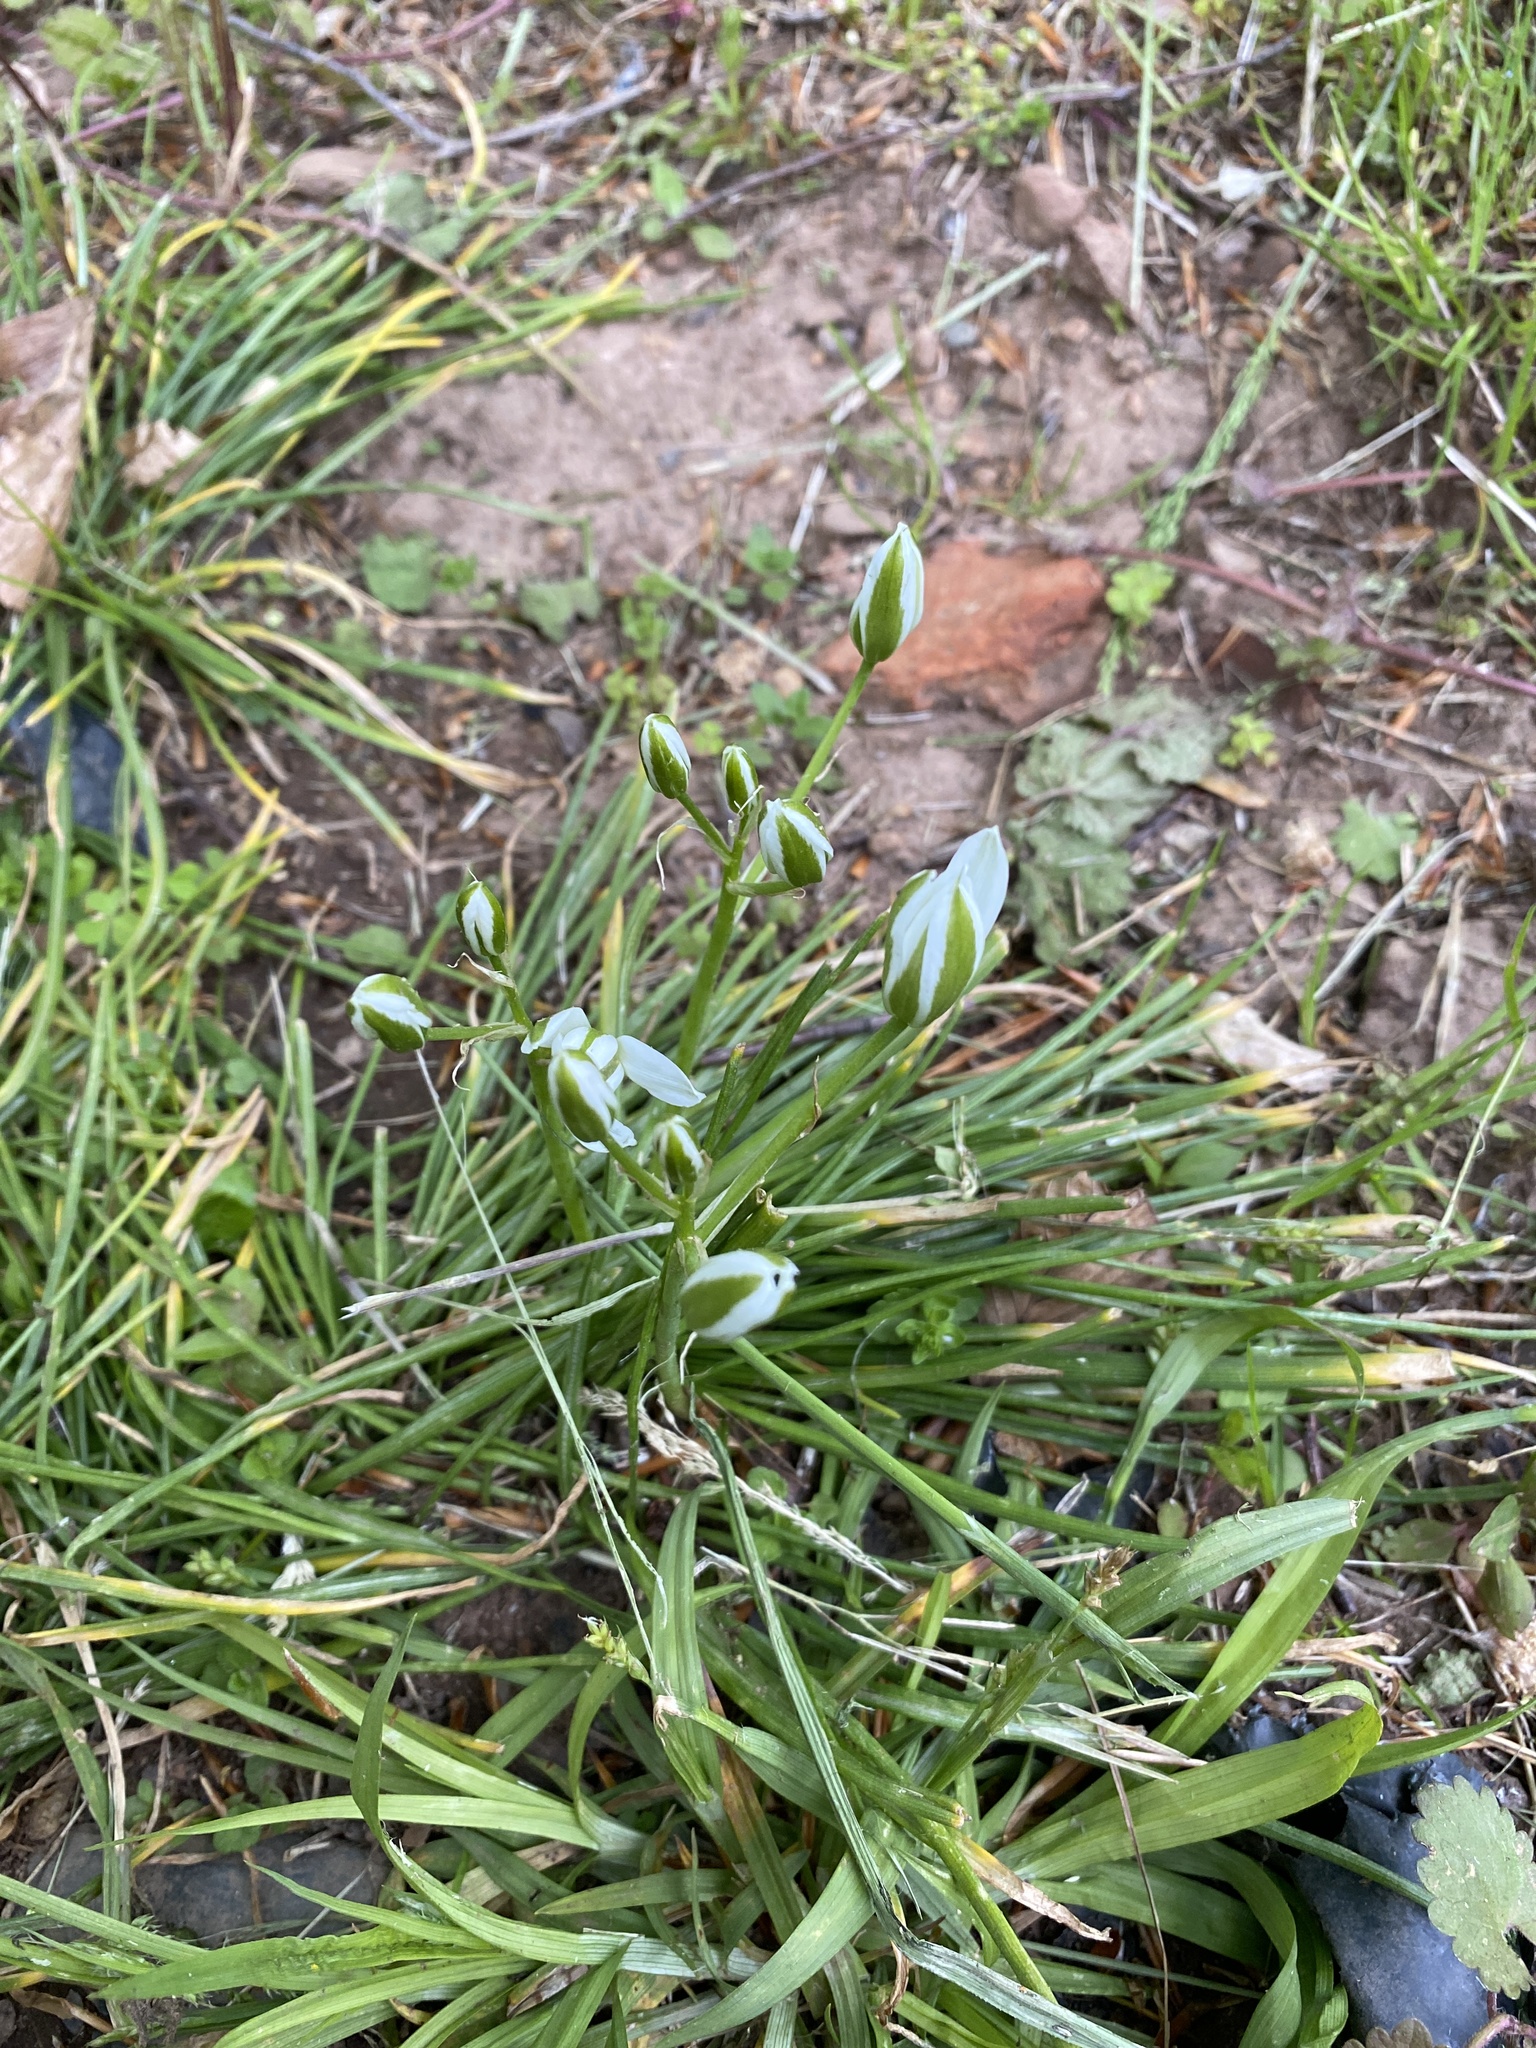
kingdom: Plantae
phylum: Tracheophyta
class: Liliopsida
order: Asparagales
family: Asparagaceae
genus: Ornithogalum
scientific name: Ornithogalum umbellatum
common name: Garden star-of-bethlehem
